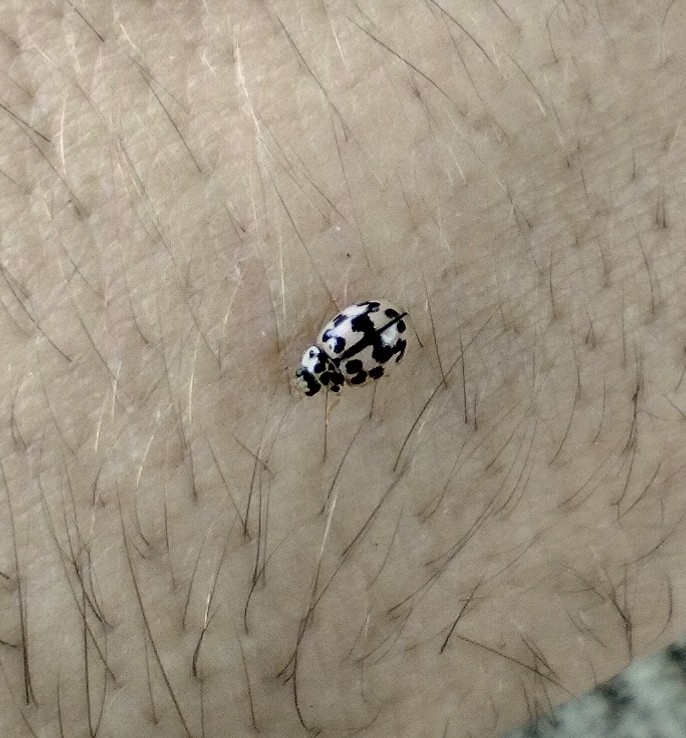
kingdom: Animalia
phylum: Arthropoda
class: Insecta
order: Coleoptera
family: Coccinellidae
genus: Oenopia
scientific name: Oenopia conglobata
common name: Ladybird beetle
